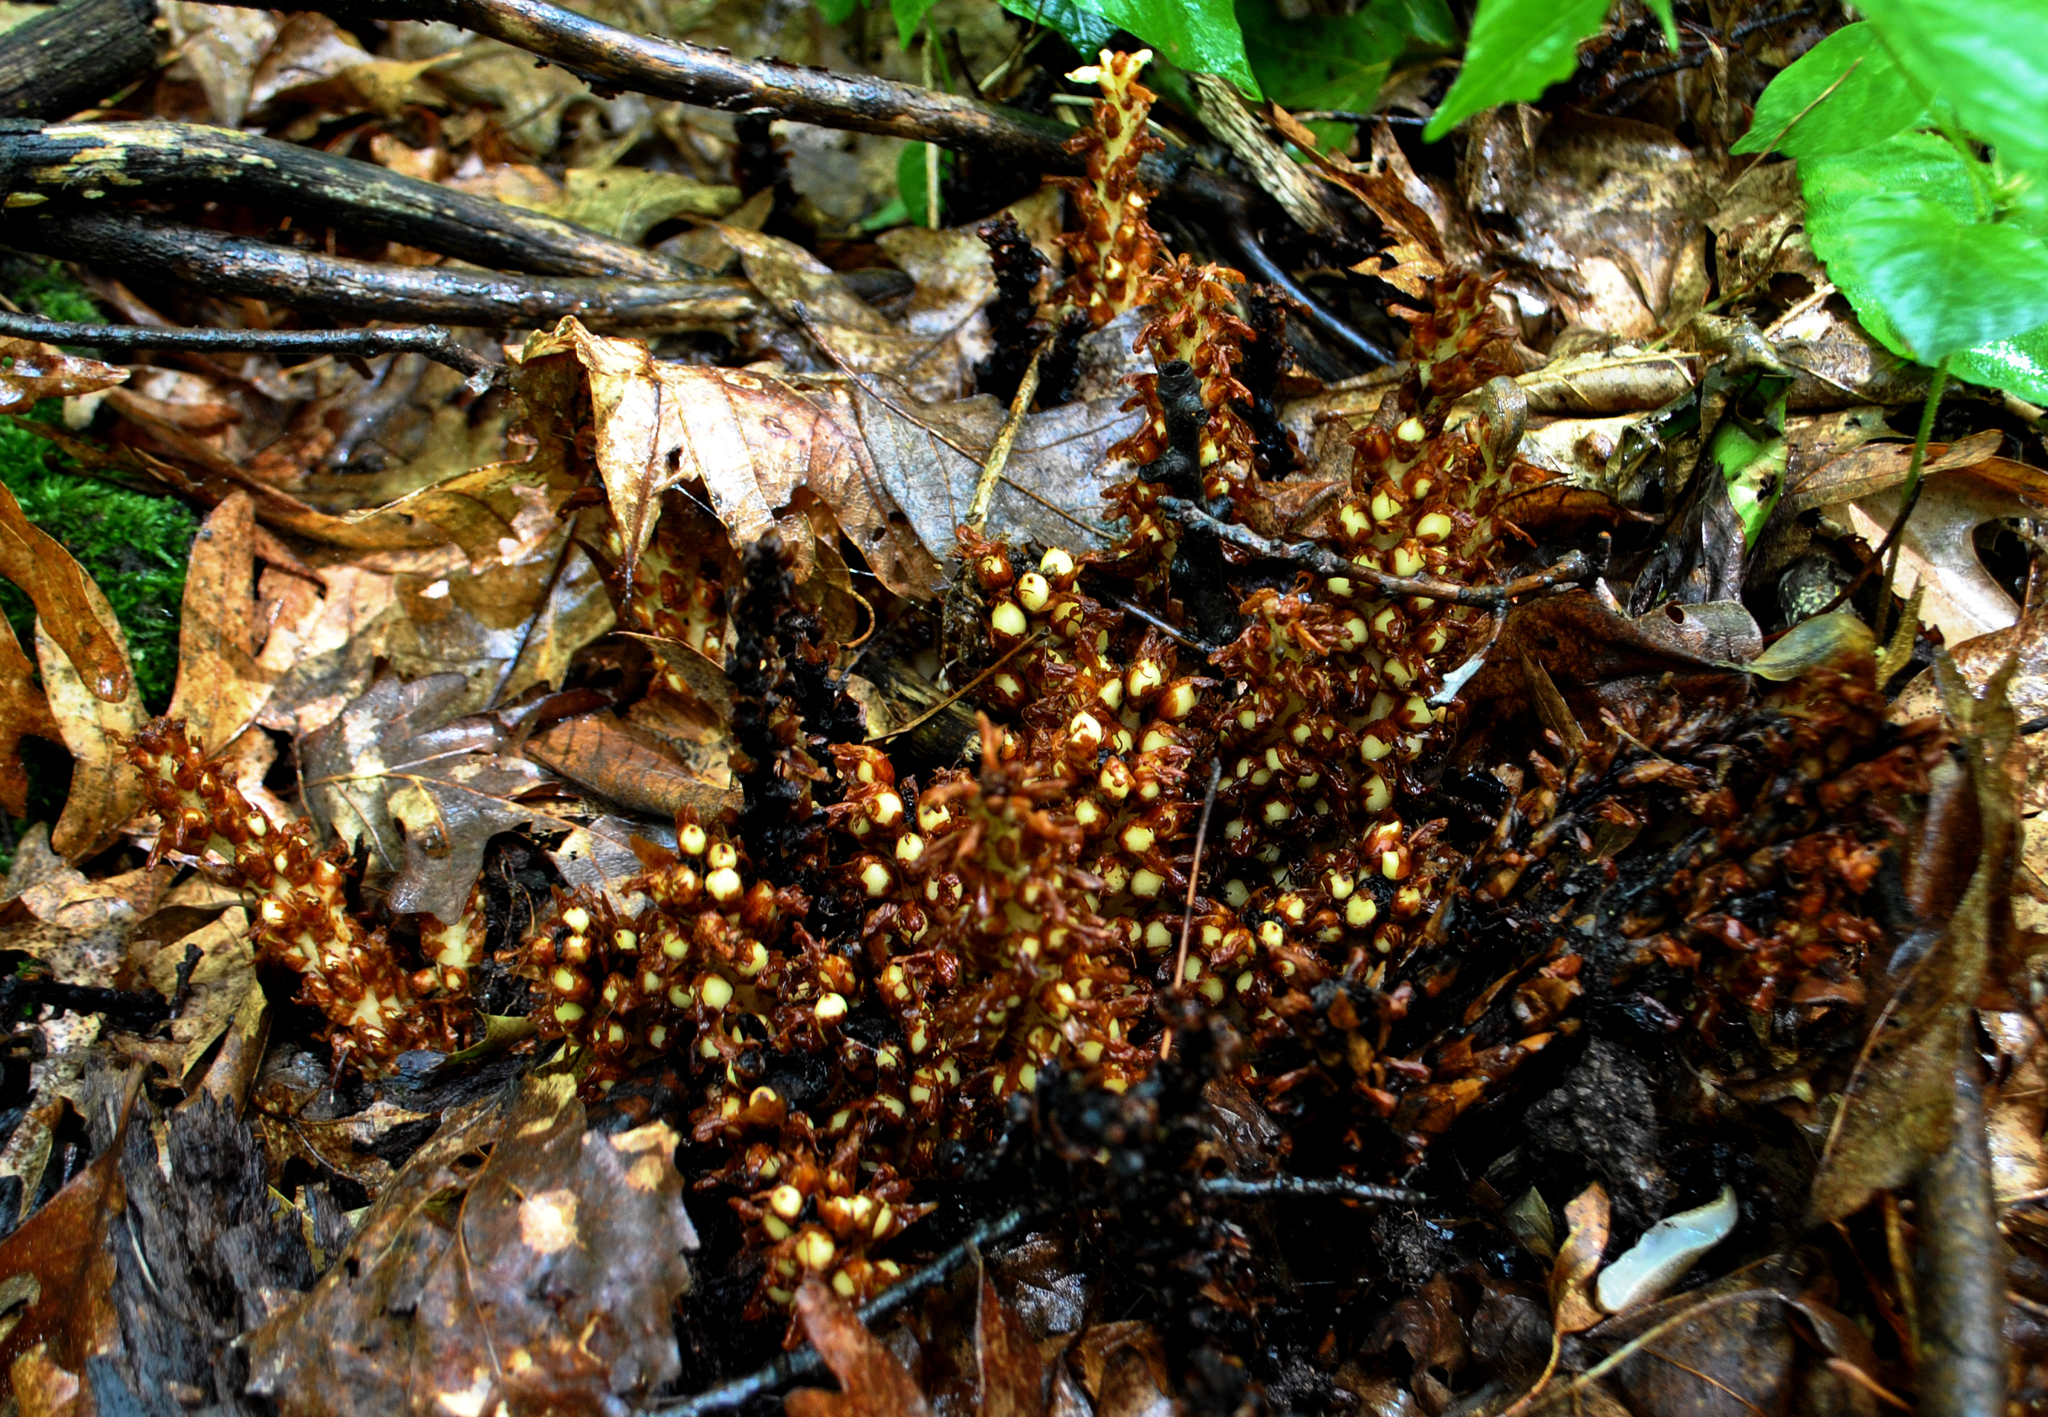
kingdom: Plantae
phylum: Tracheophyta
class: Magnoliopsida
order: Lamiales
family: Orobanchaceae
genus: Conopholis
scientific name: Conopholis americana
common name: American cancer-root
